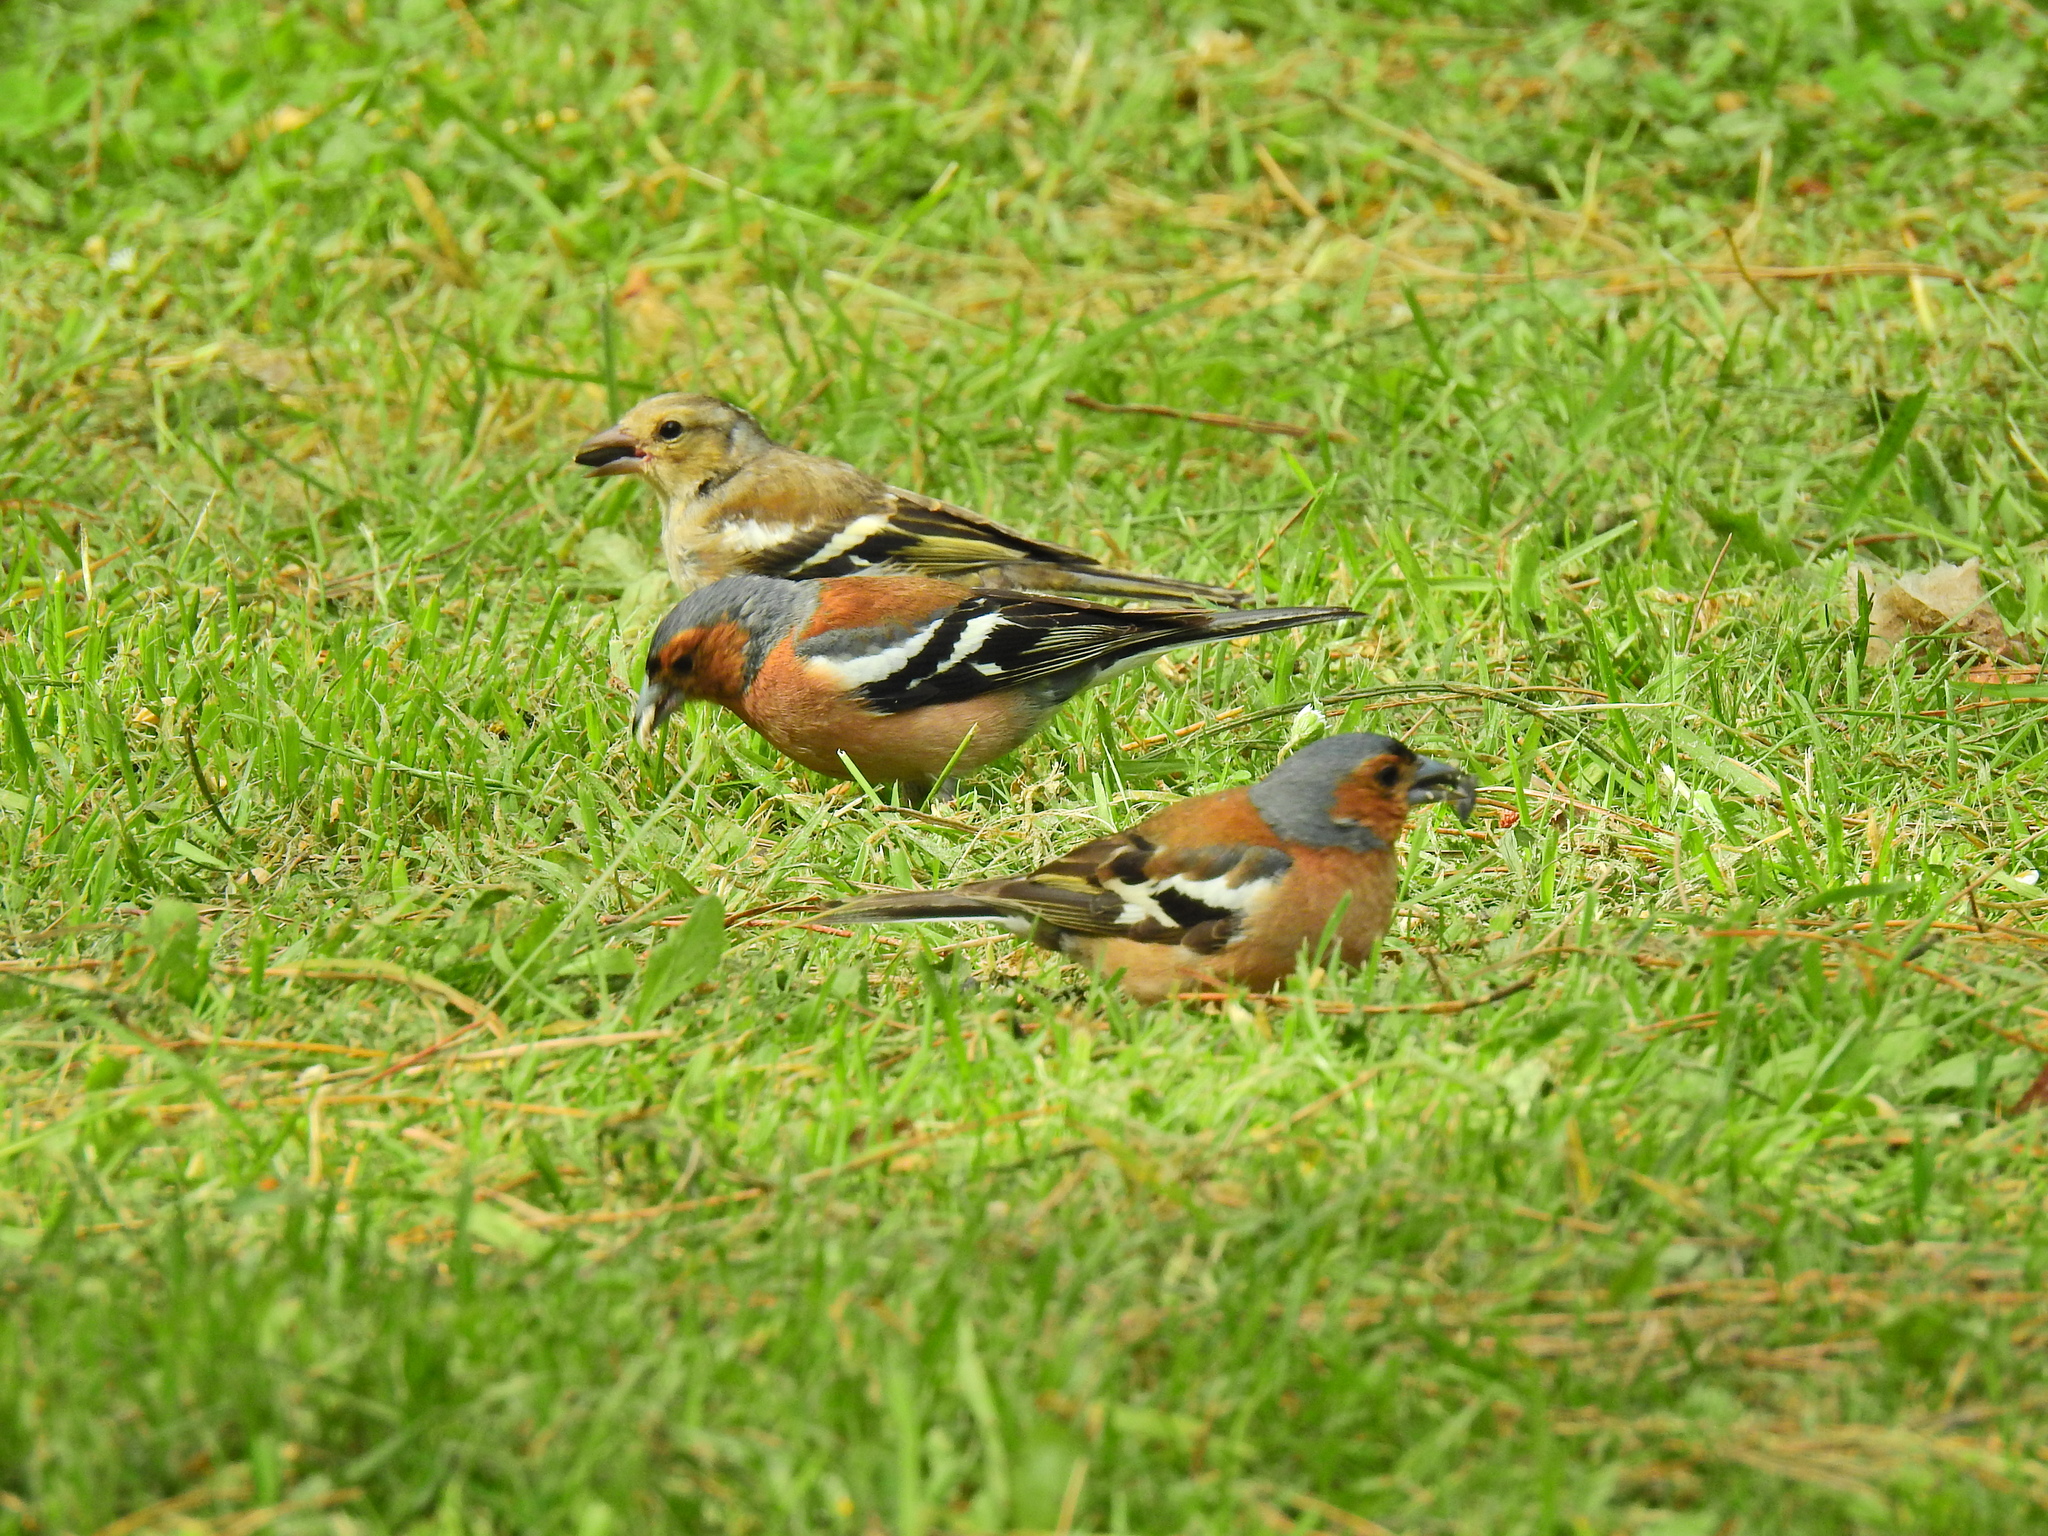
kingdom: Animalia
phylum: Chordata
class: Aves
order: Passeriformes
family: Fringillidae
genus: Fringilla
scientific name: Fringilla coelebs
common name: Common chaffinch
